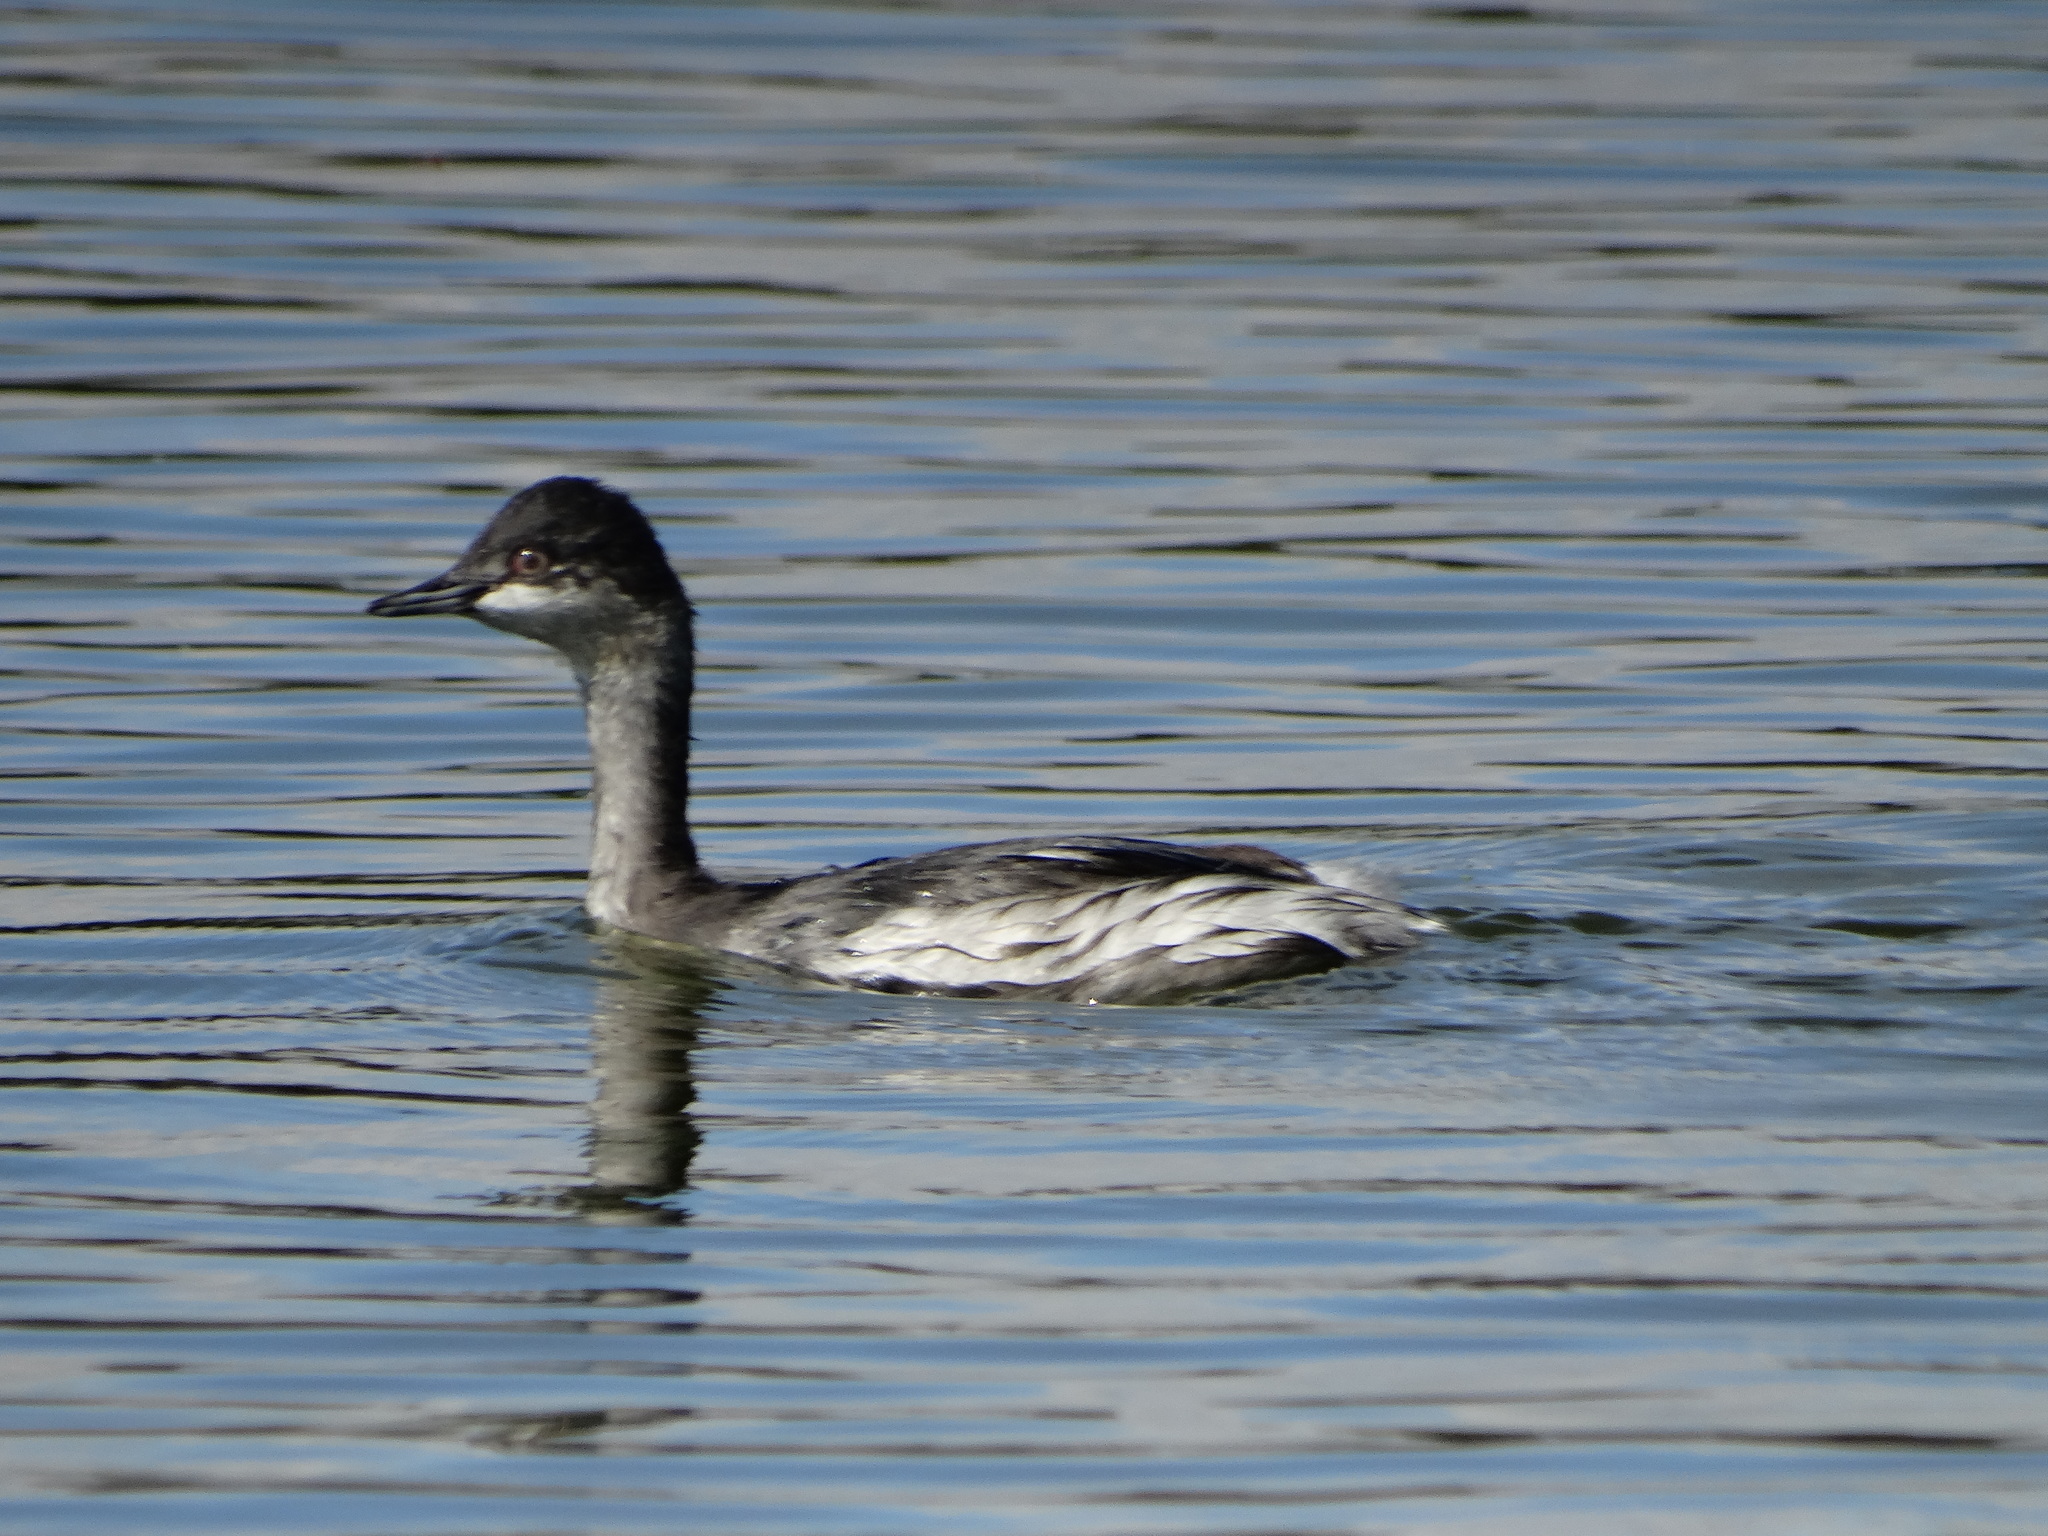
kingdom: Animalia
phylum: Chordata
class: Aves
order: Podicipediformes
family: Podicipedidae
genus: Podiceps
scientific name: Podiceps nigricollis
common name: Black-necked grebe
